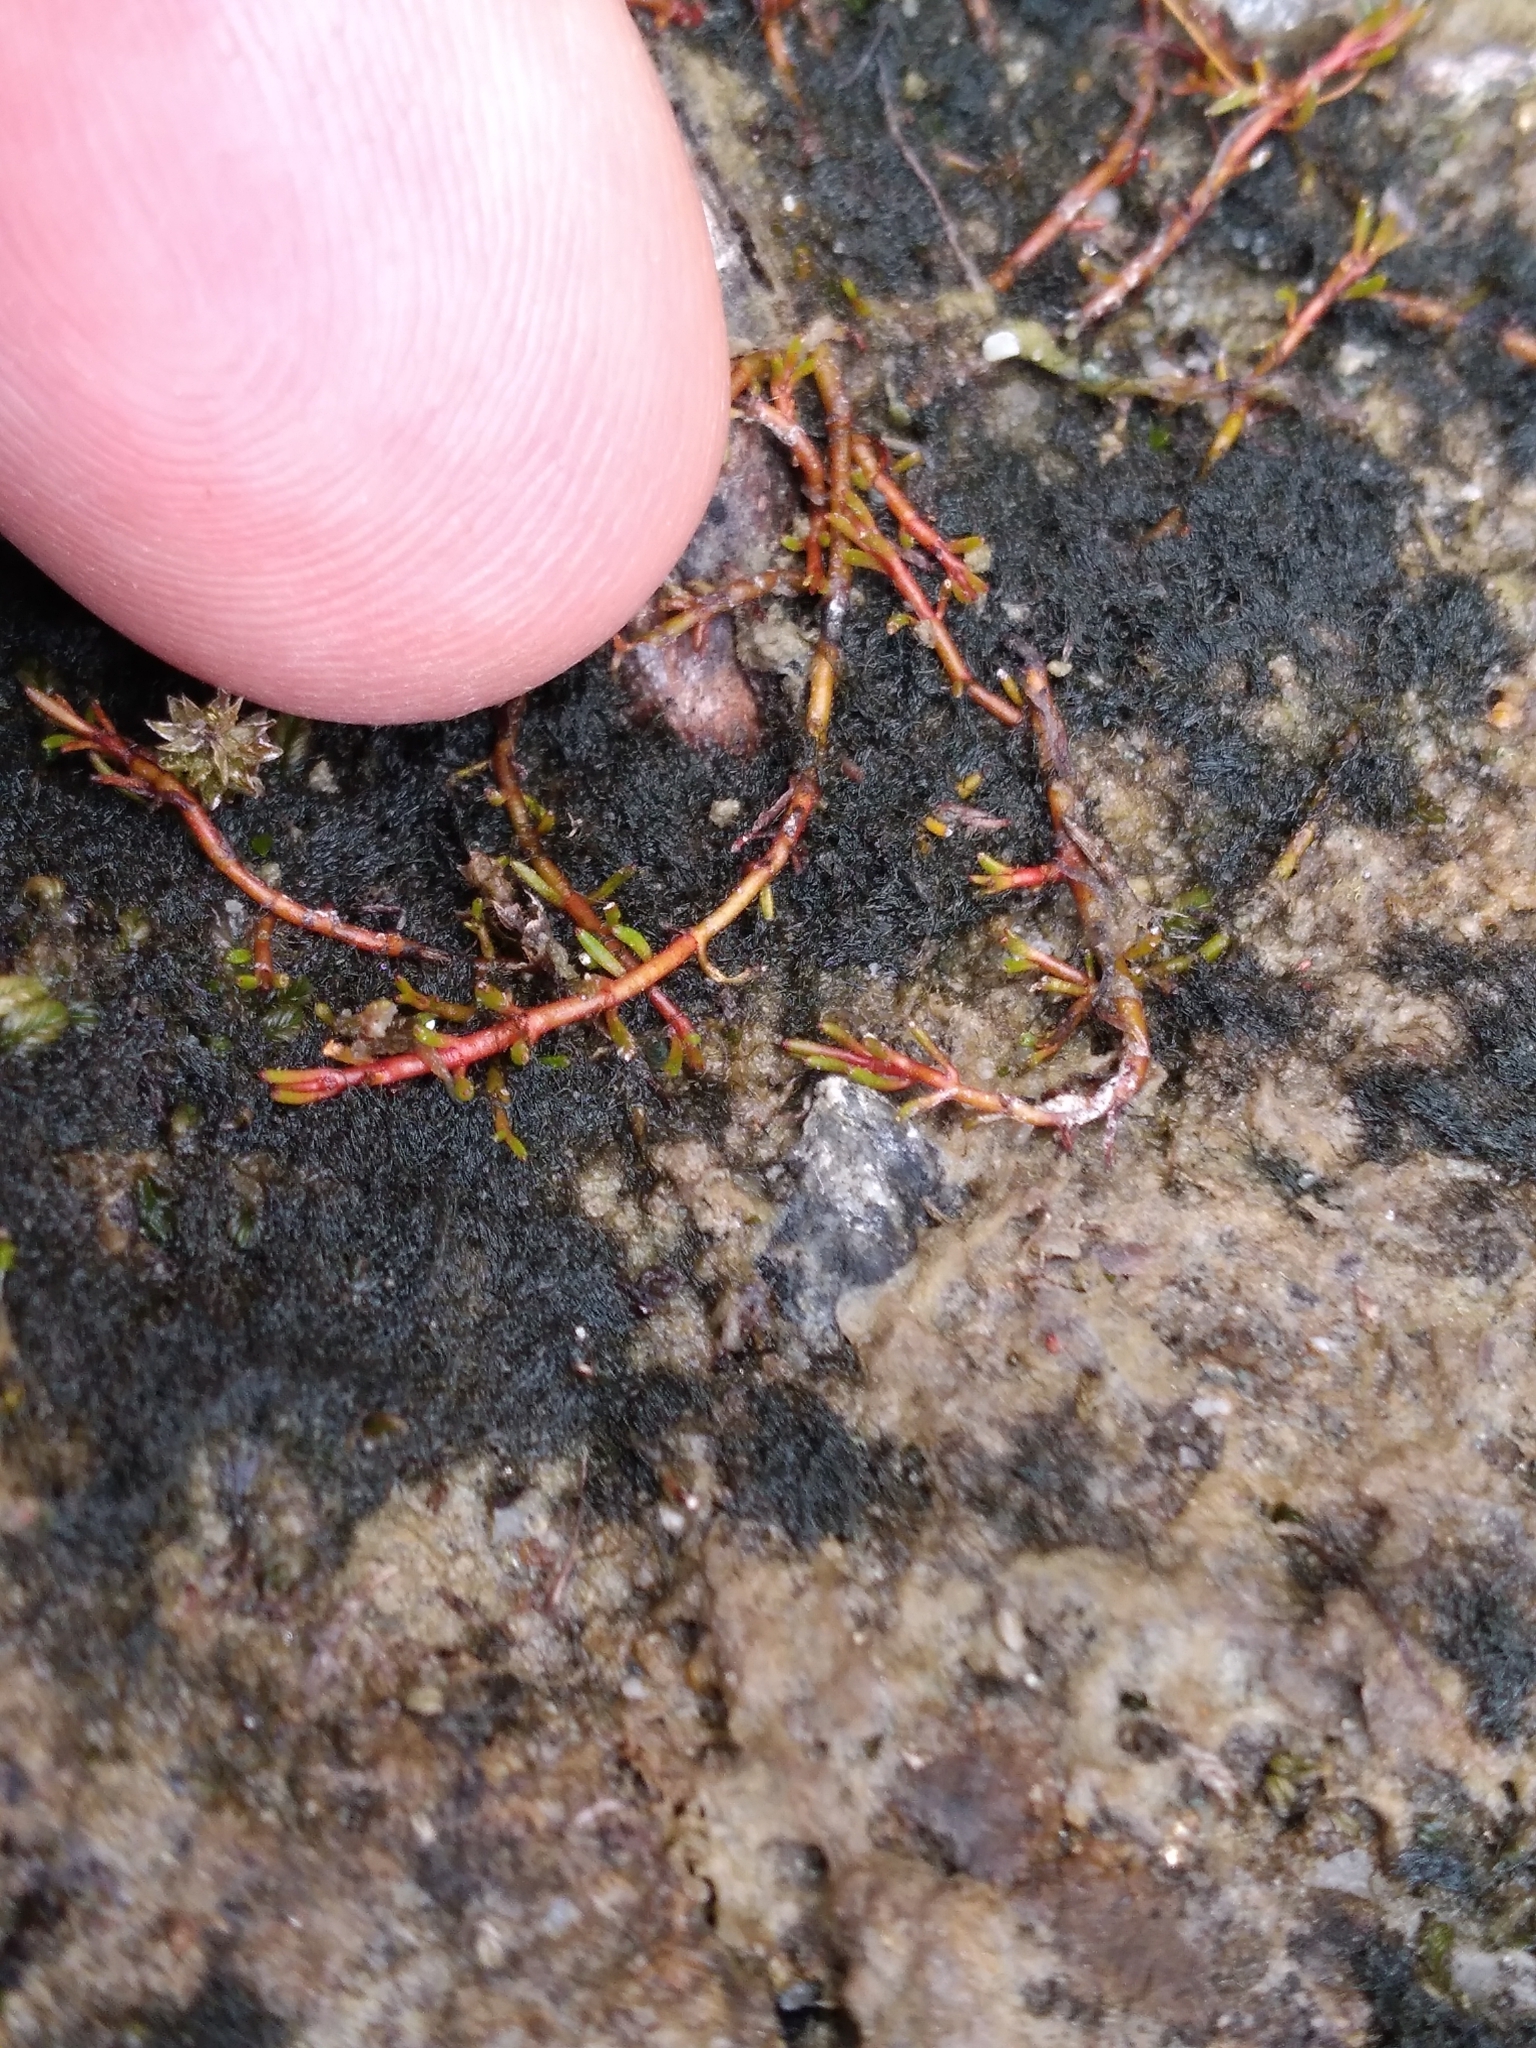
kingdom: Plantae
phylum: Tracheophyta
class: Magnoliopsida
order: Saxifragales
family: Haloragaceae
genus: Myriophyllum
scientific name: Myriophyllum votschii
